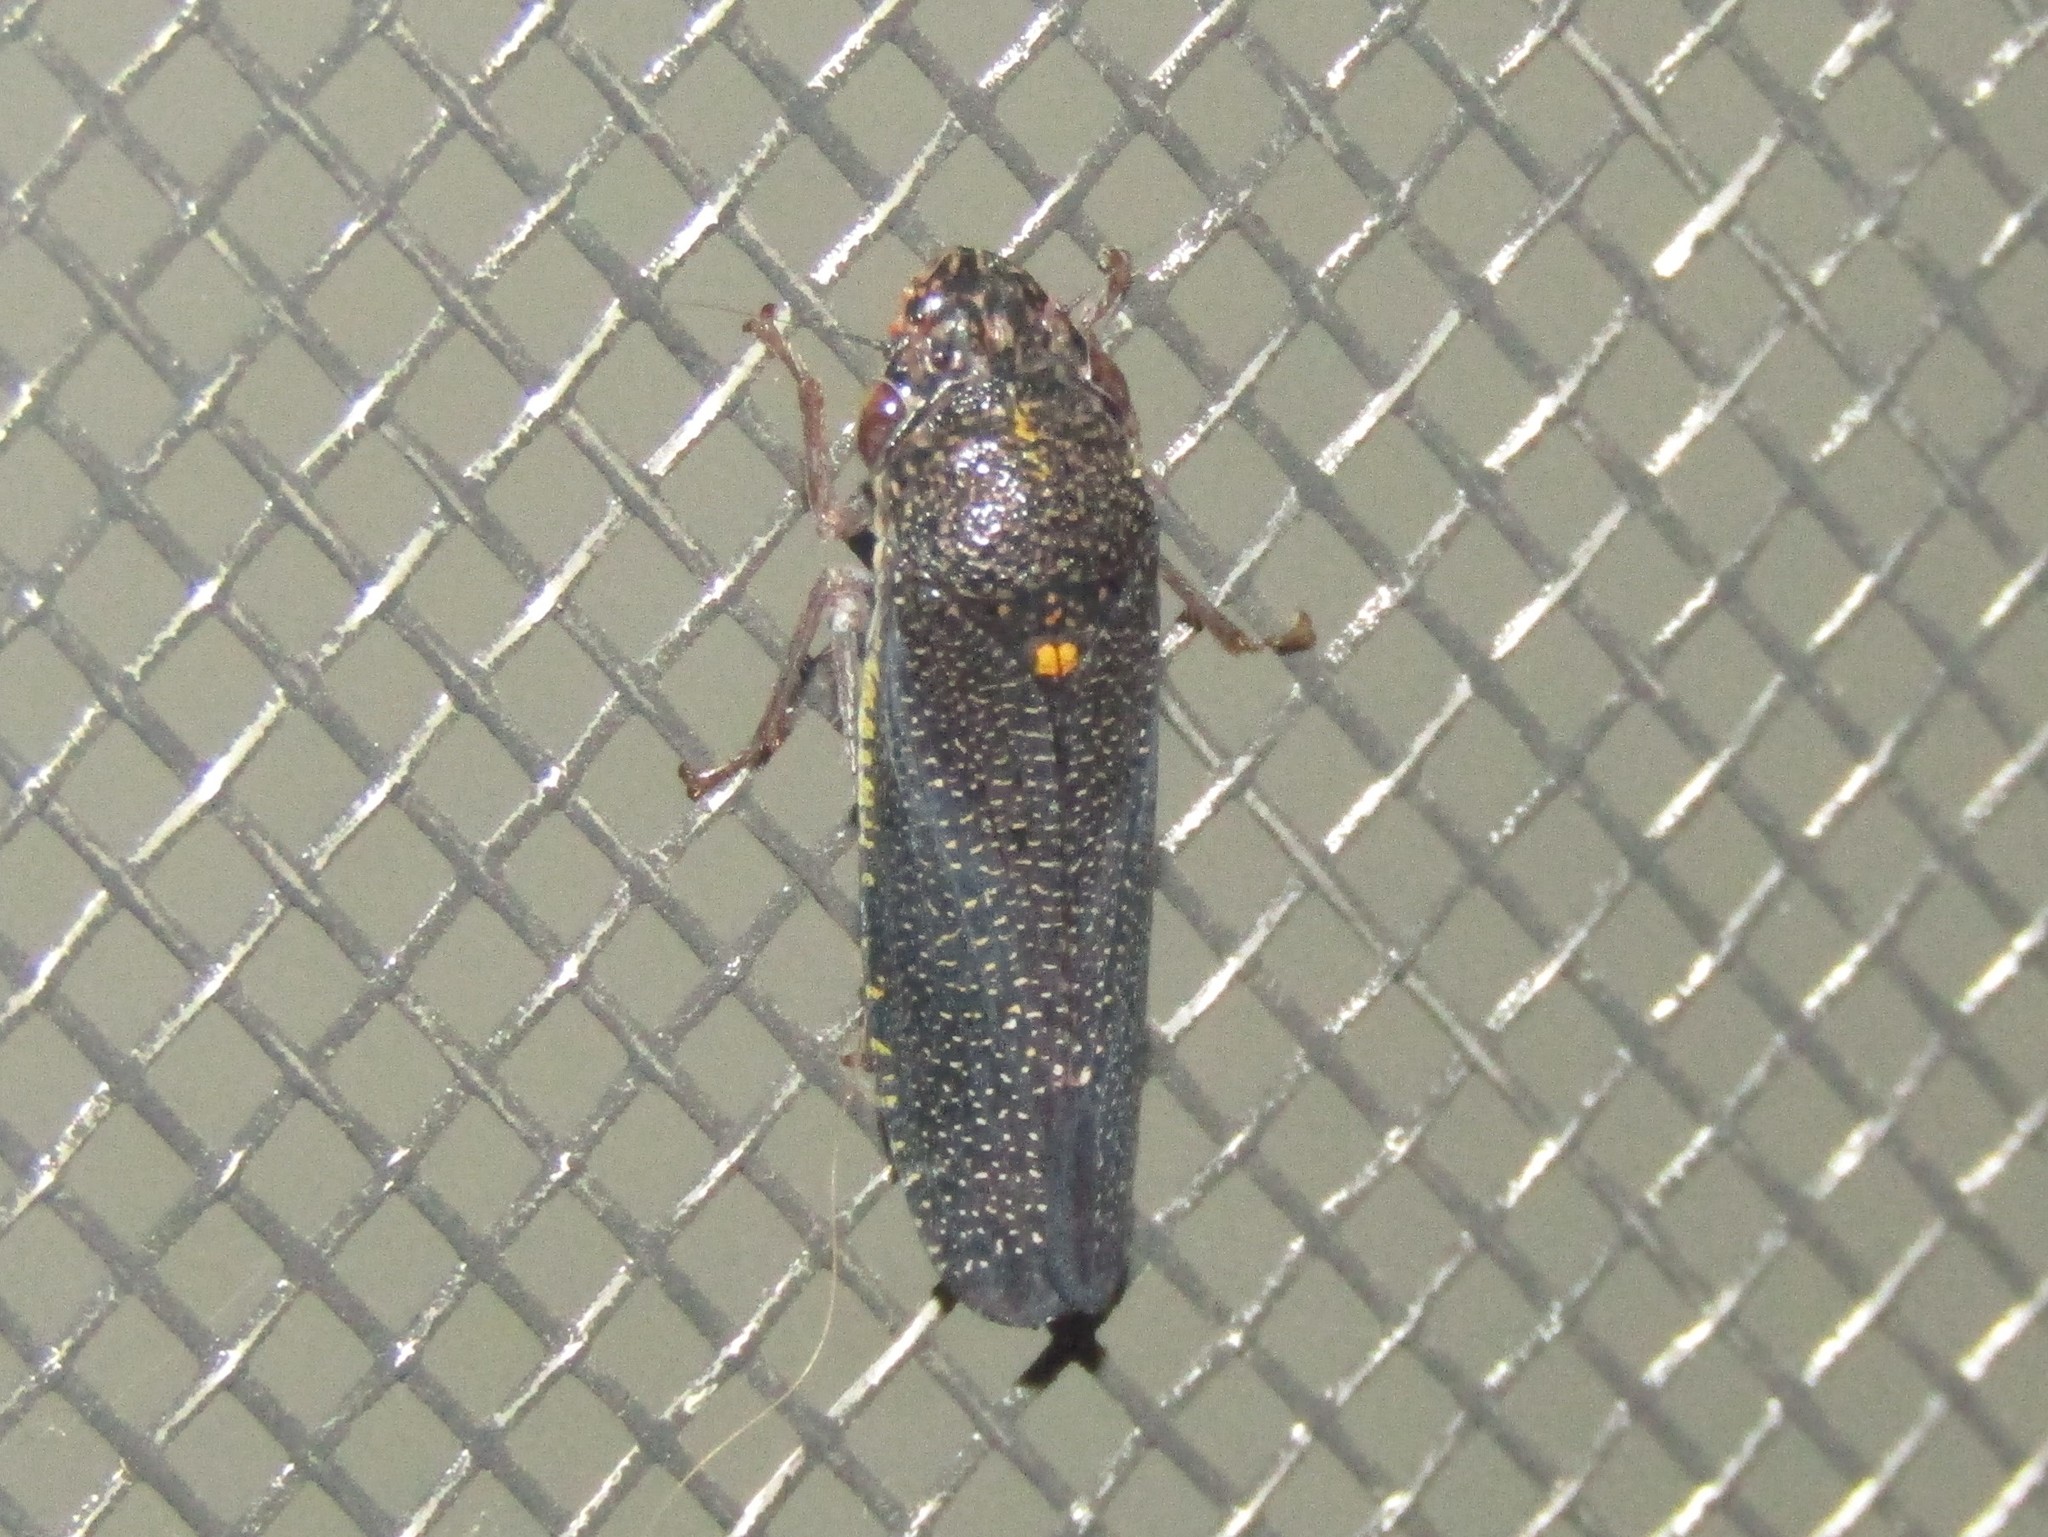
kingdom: Animalia
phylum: Arthropoda
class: Insecta
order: Hemiptera
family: Cicadellidae
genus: Paraulacizes
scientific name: Paraulacizes irrorata
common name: Speckled sharpshooter
